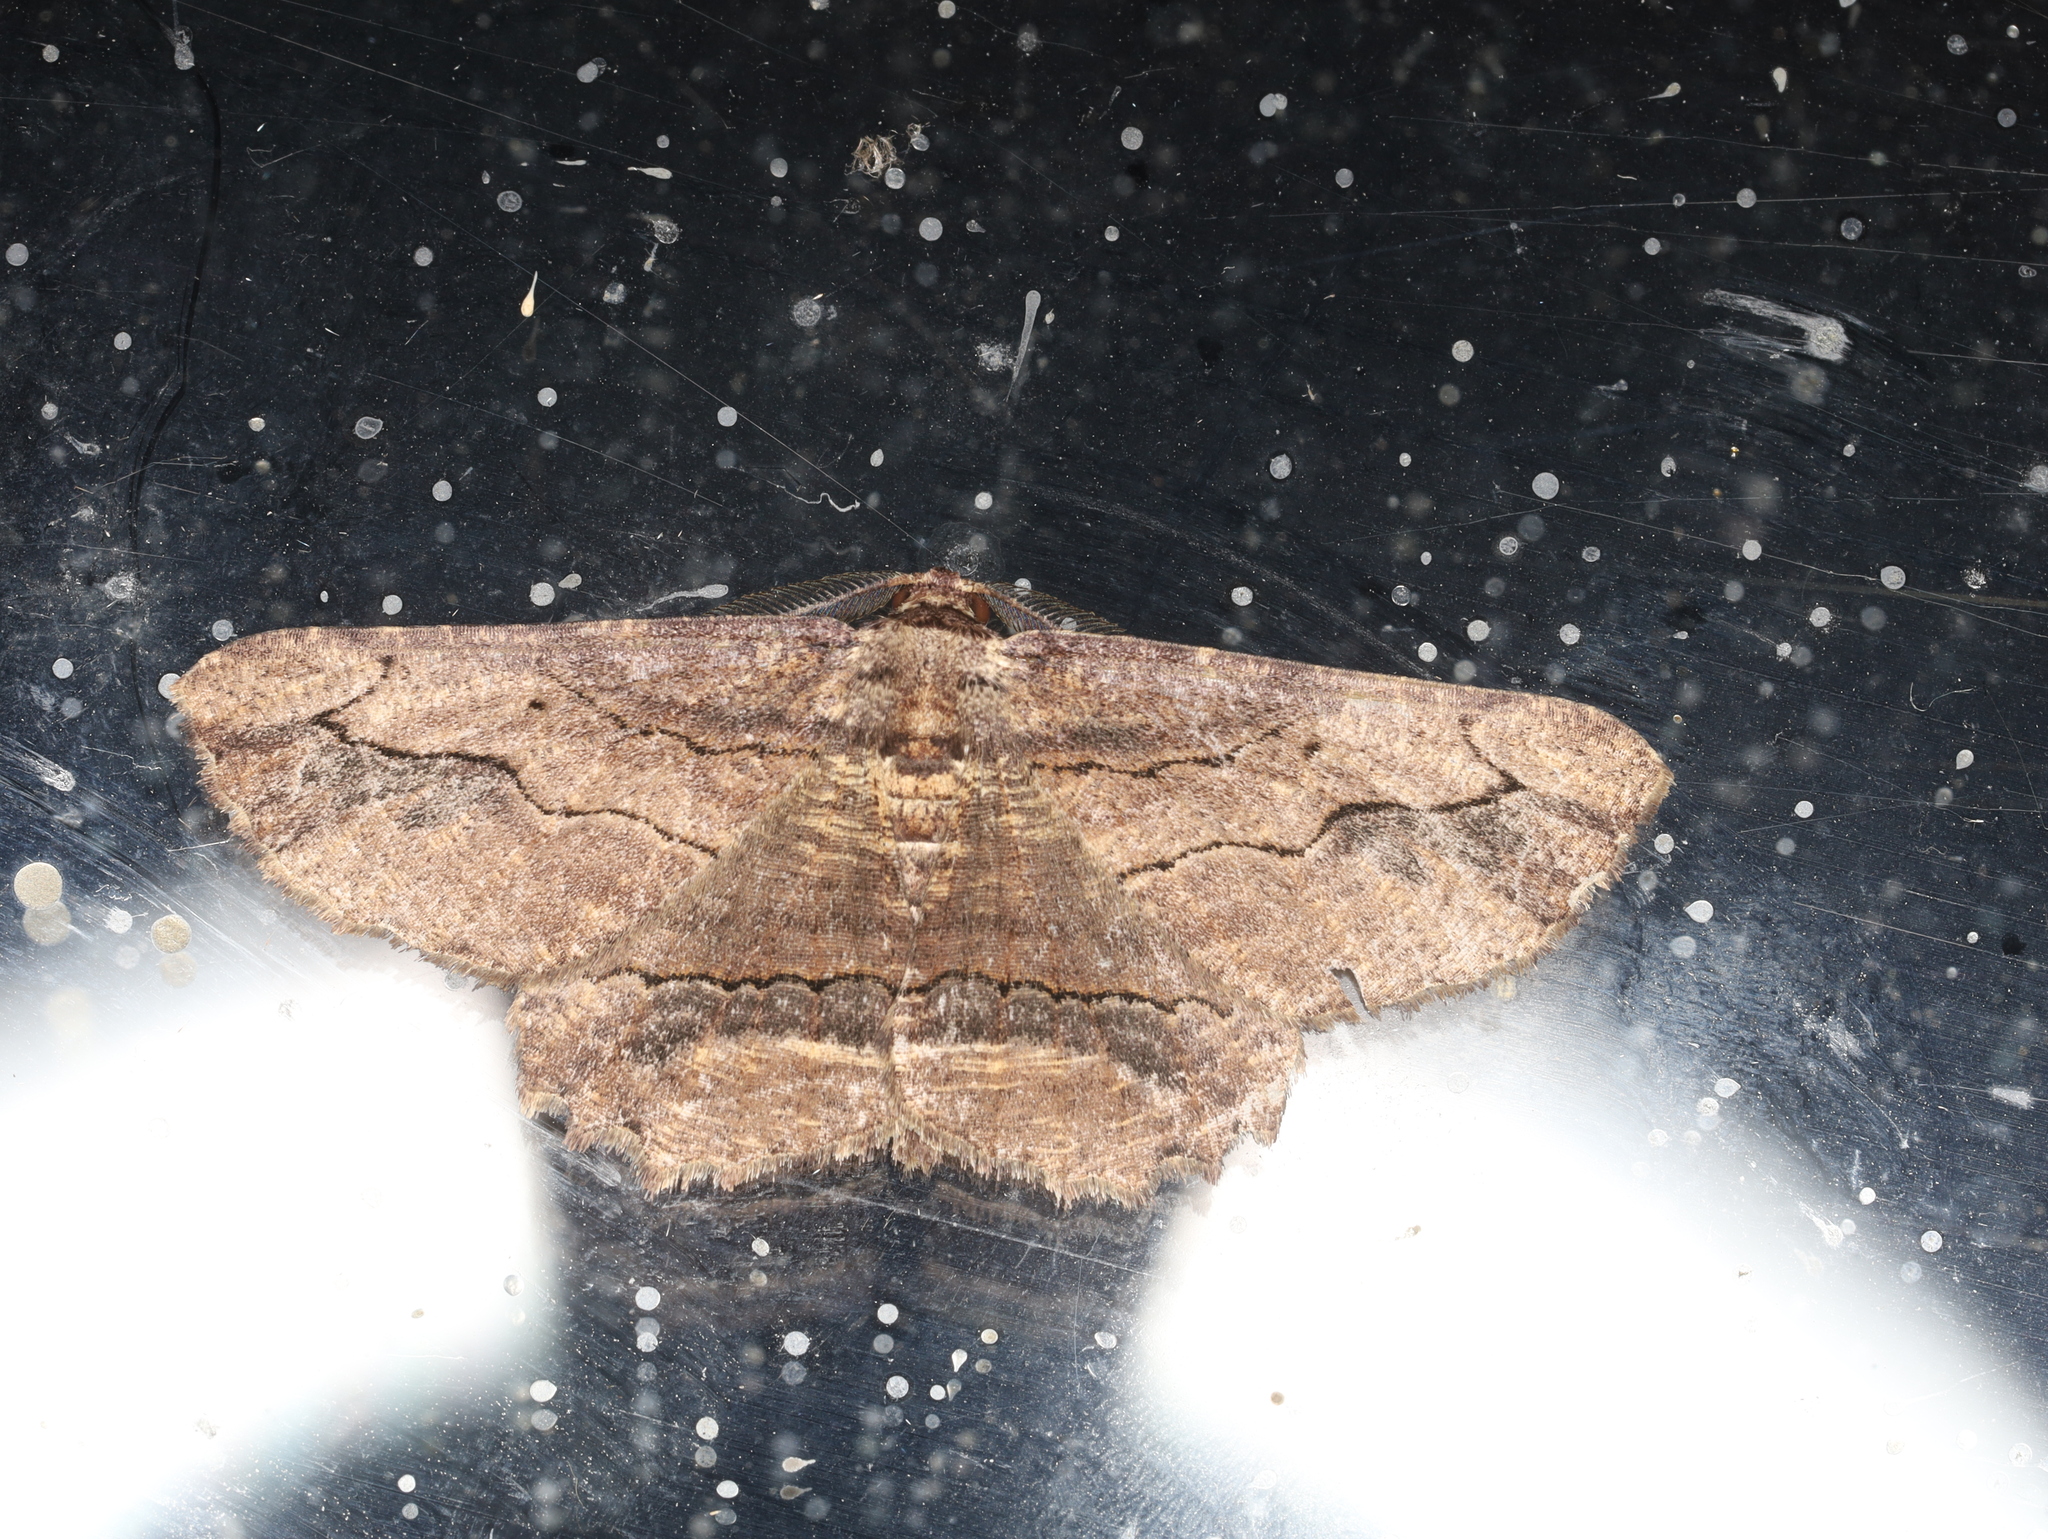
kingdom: Animalia
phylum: Arthropoda
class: Insecta
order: Lepidoptera
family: Geometridae
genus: Menophra
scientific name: Menophra abruptaria
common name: Waved umber
